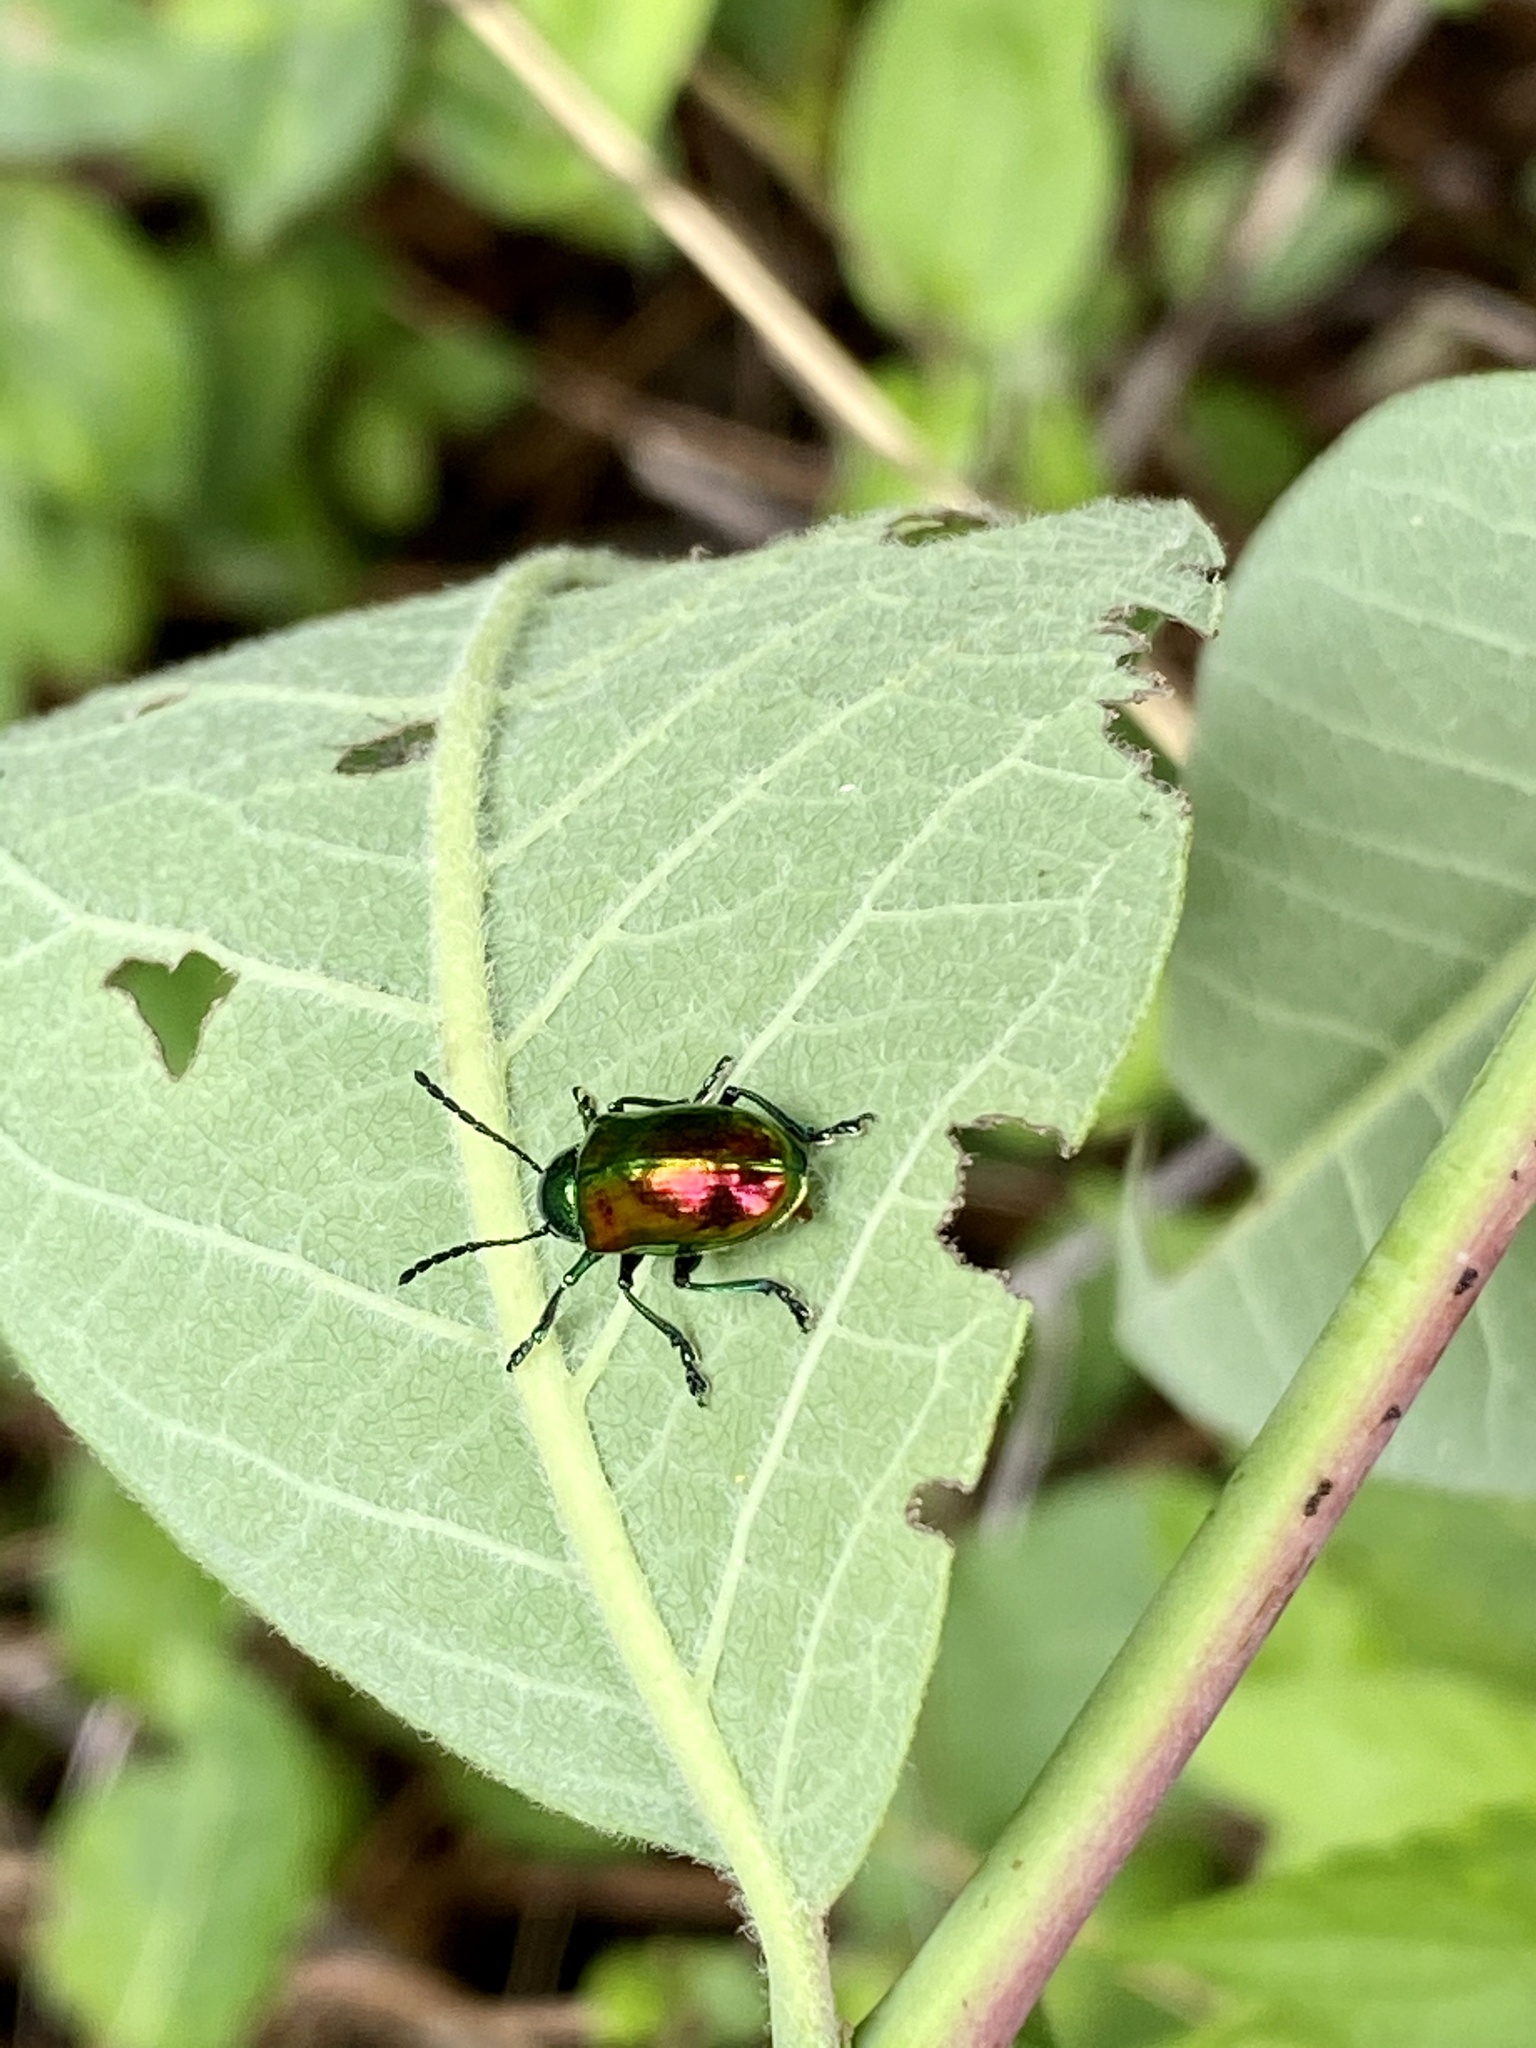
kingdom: Animalia
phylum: Arthropoda
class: Insecta
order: Coleoptera
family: Chrysomelidae
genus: Chrysochus
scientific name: Chrysochus auratus
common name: Dogbane leaf beetle
